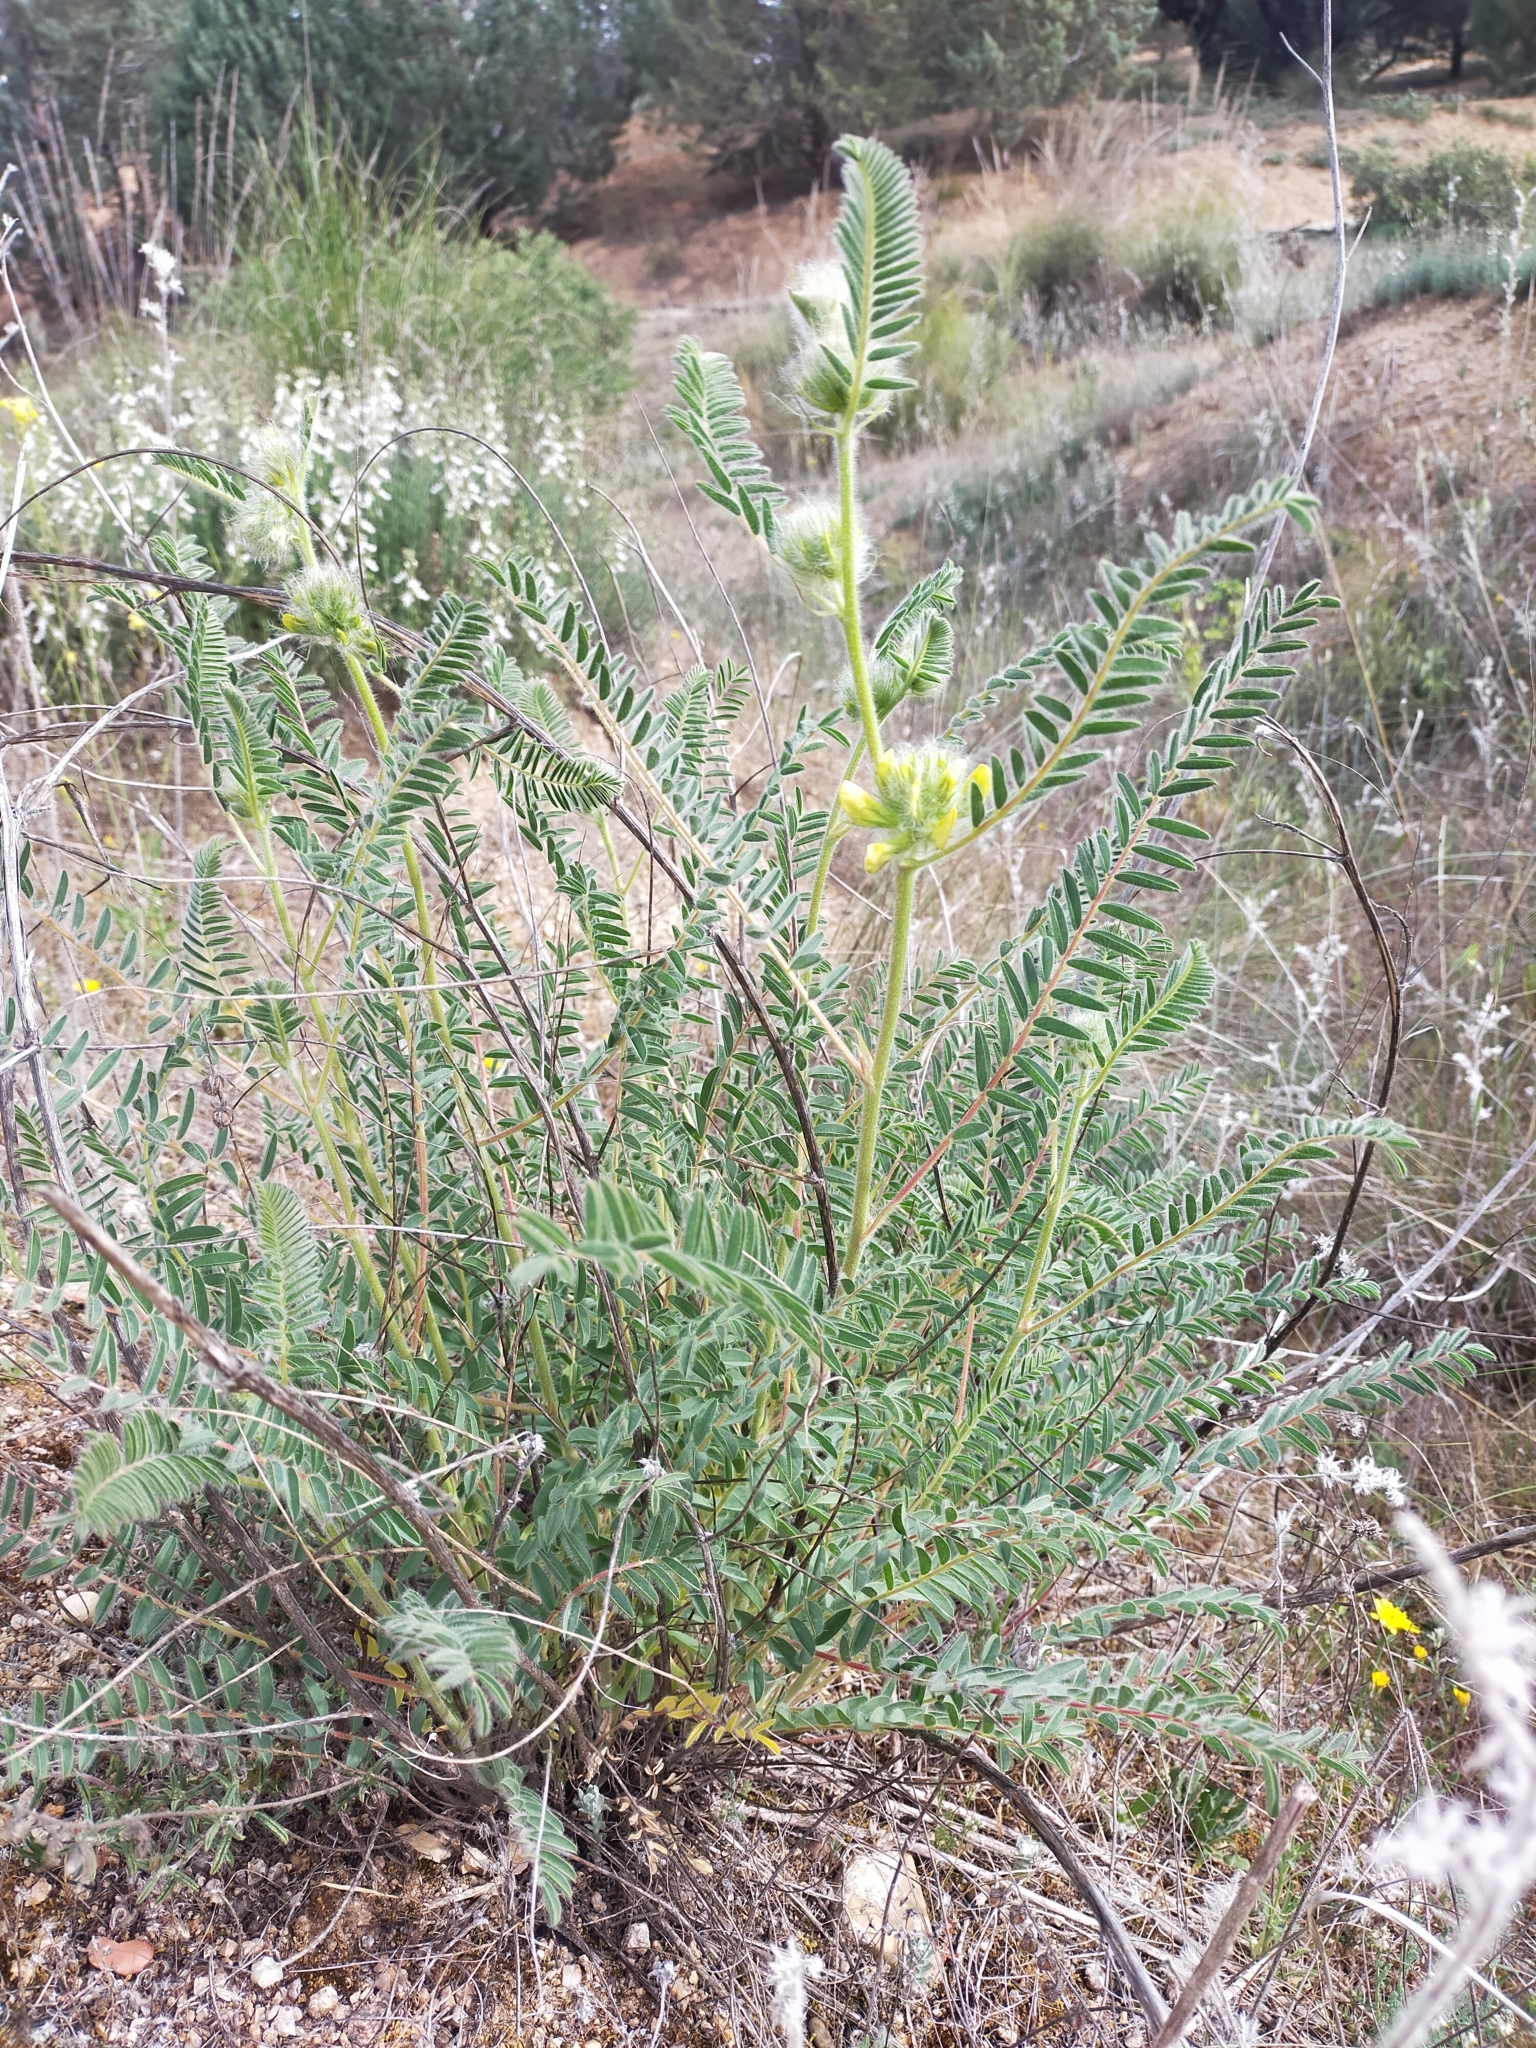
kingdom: Plantae
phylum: Tracheophyta
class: Magnoliopsida
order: Fabales
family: Fabaceae
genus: Astragalus
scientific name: Astragalus alopecuroides
